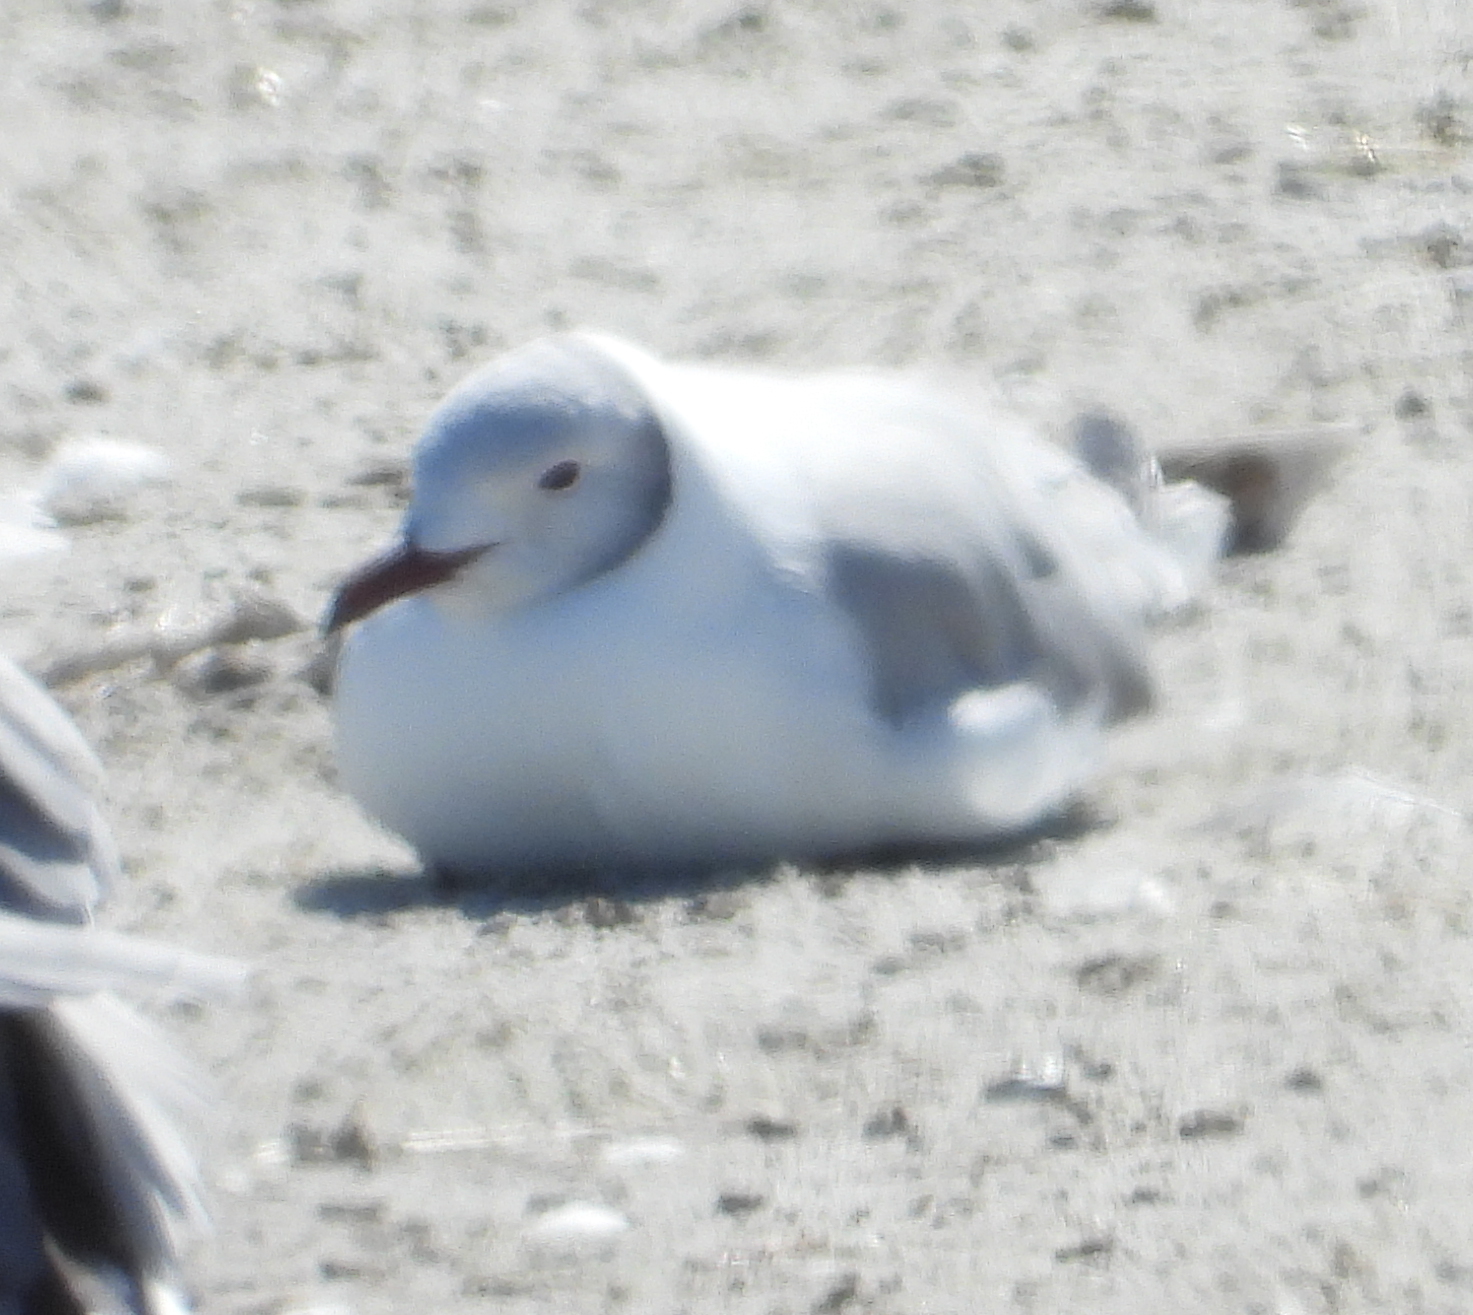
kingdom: Animalia
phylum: Chordata
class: Aves
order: Charadriiformes
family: Laridae
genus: Chroicocephalus
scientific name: Chroicocephalus cirrocephalus
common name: Grey-headed gull
